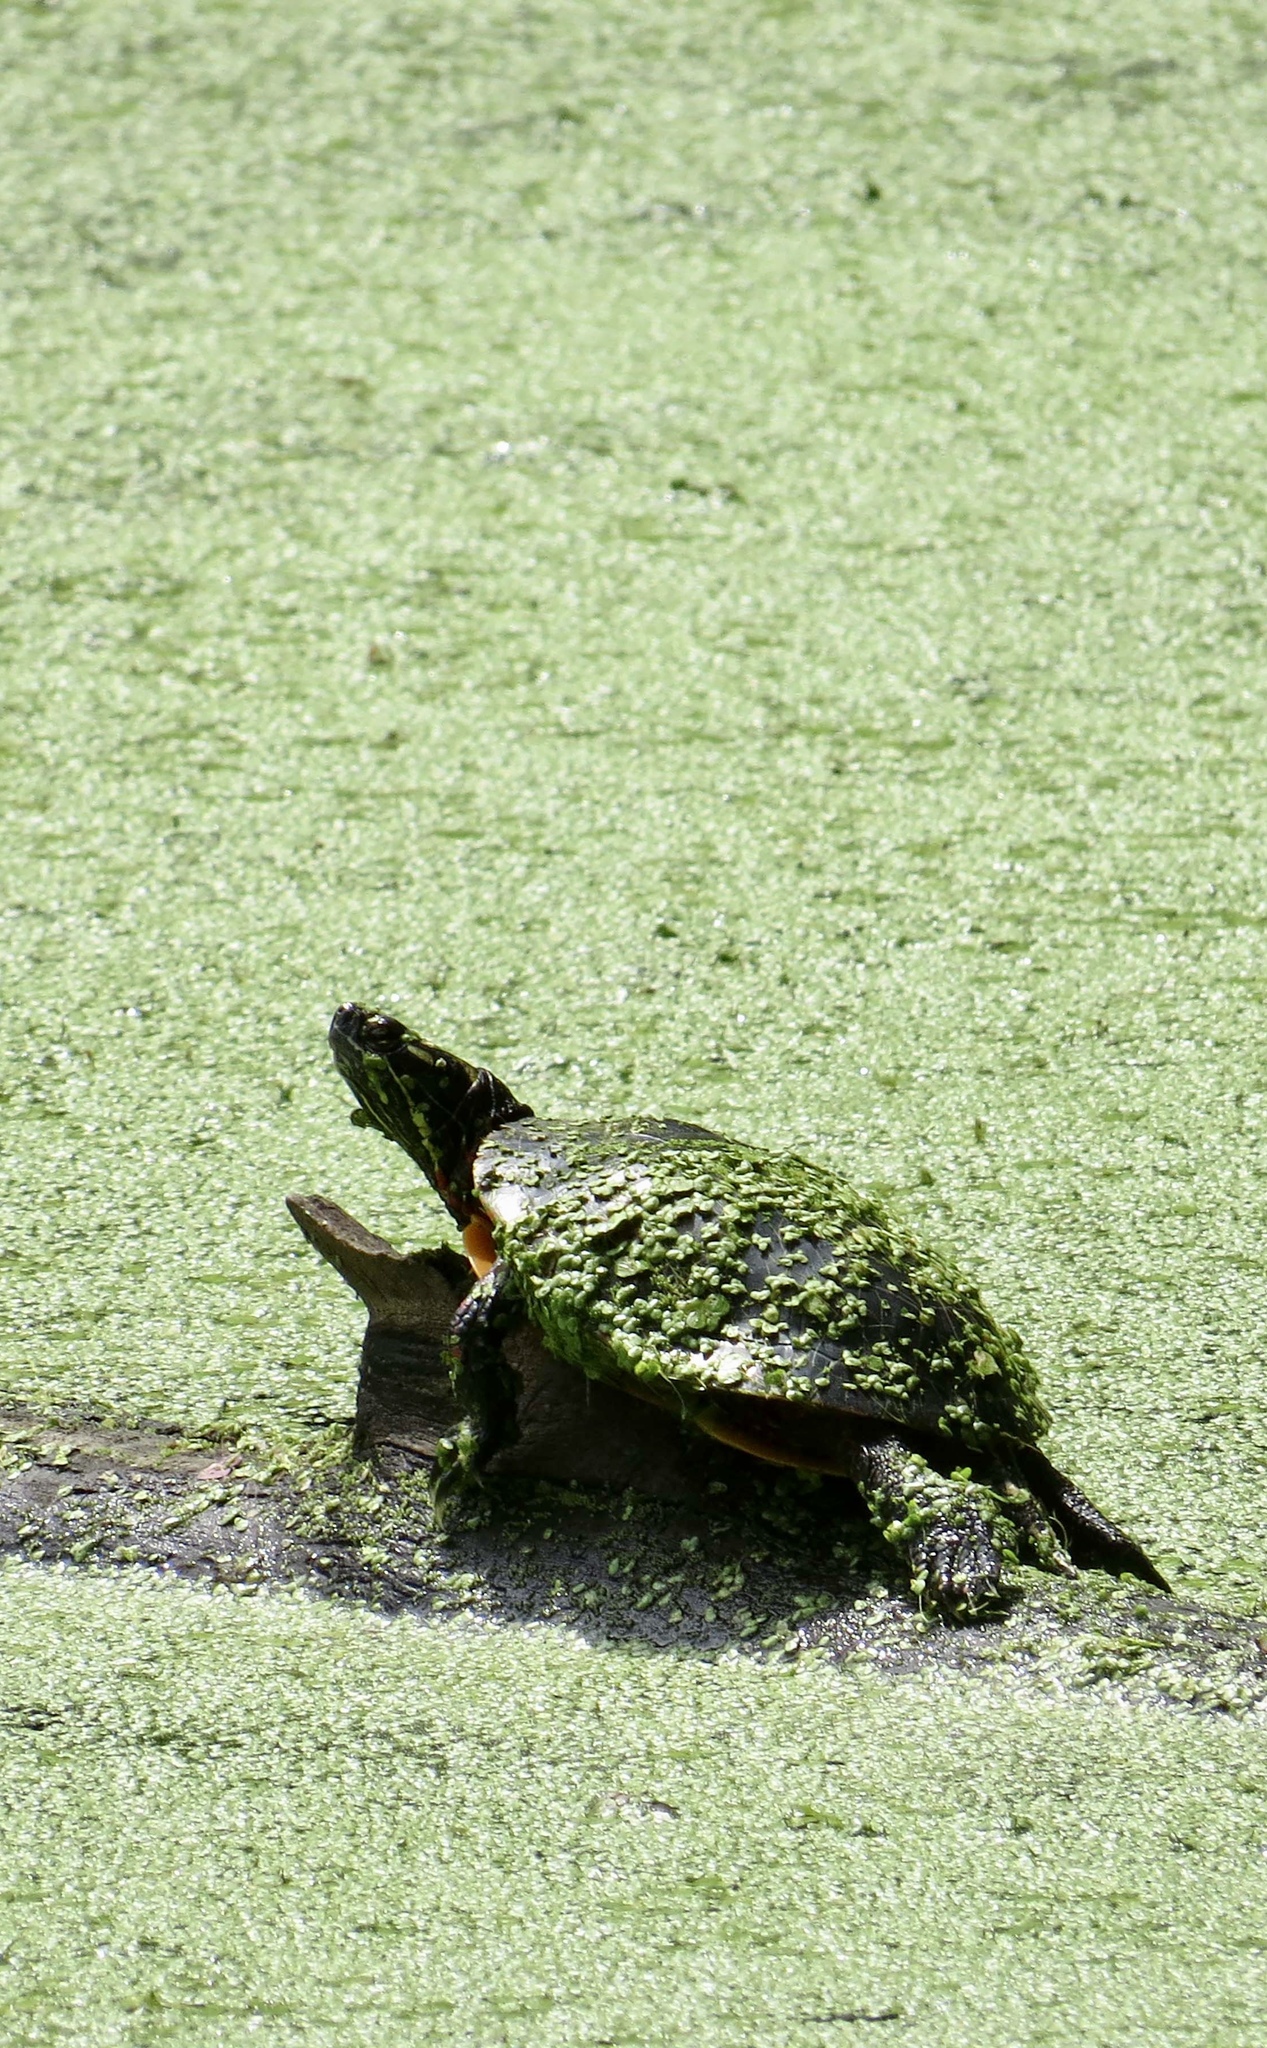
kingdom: Animalia
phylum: Chordata
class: Testudines
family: Emydidae
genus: Chrysemys
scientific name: Chrysemys picta
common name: Painted turtle
